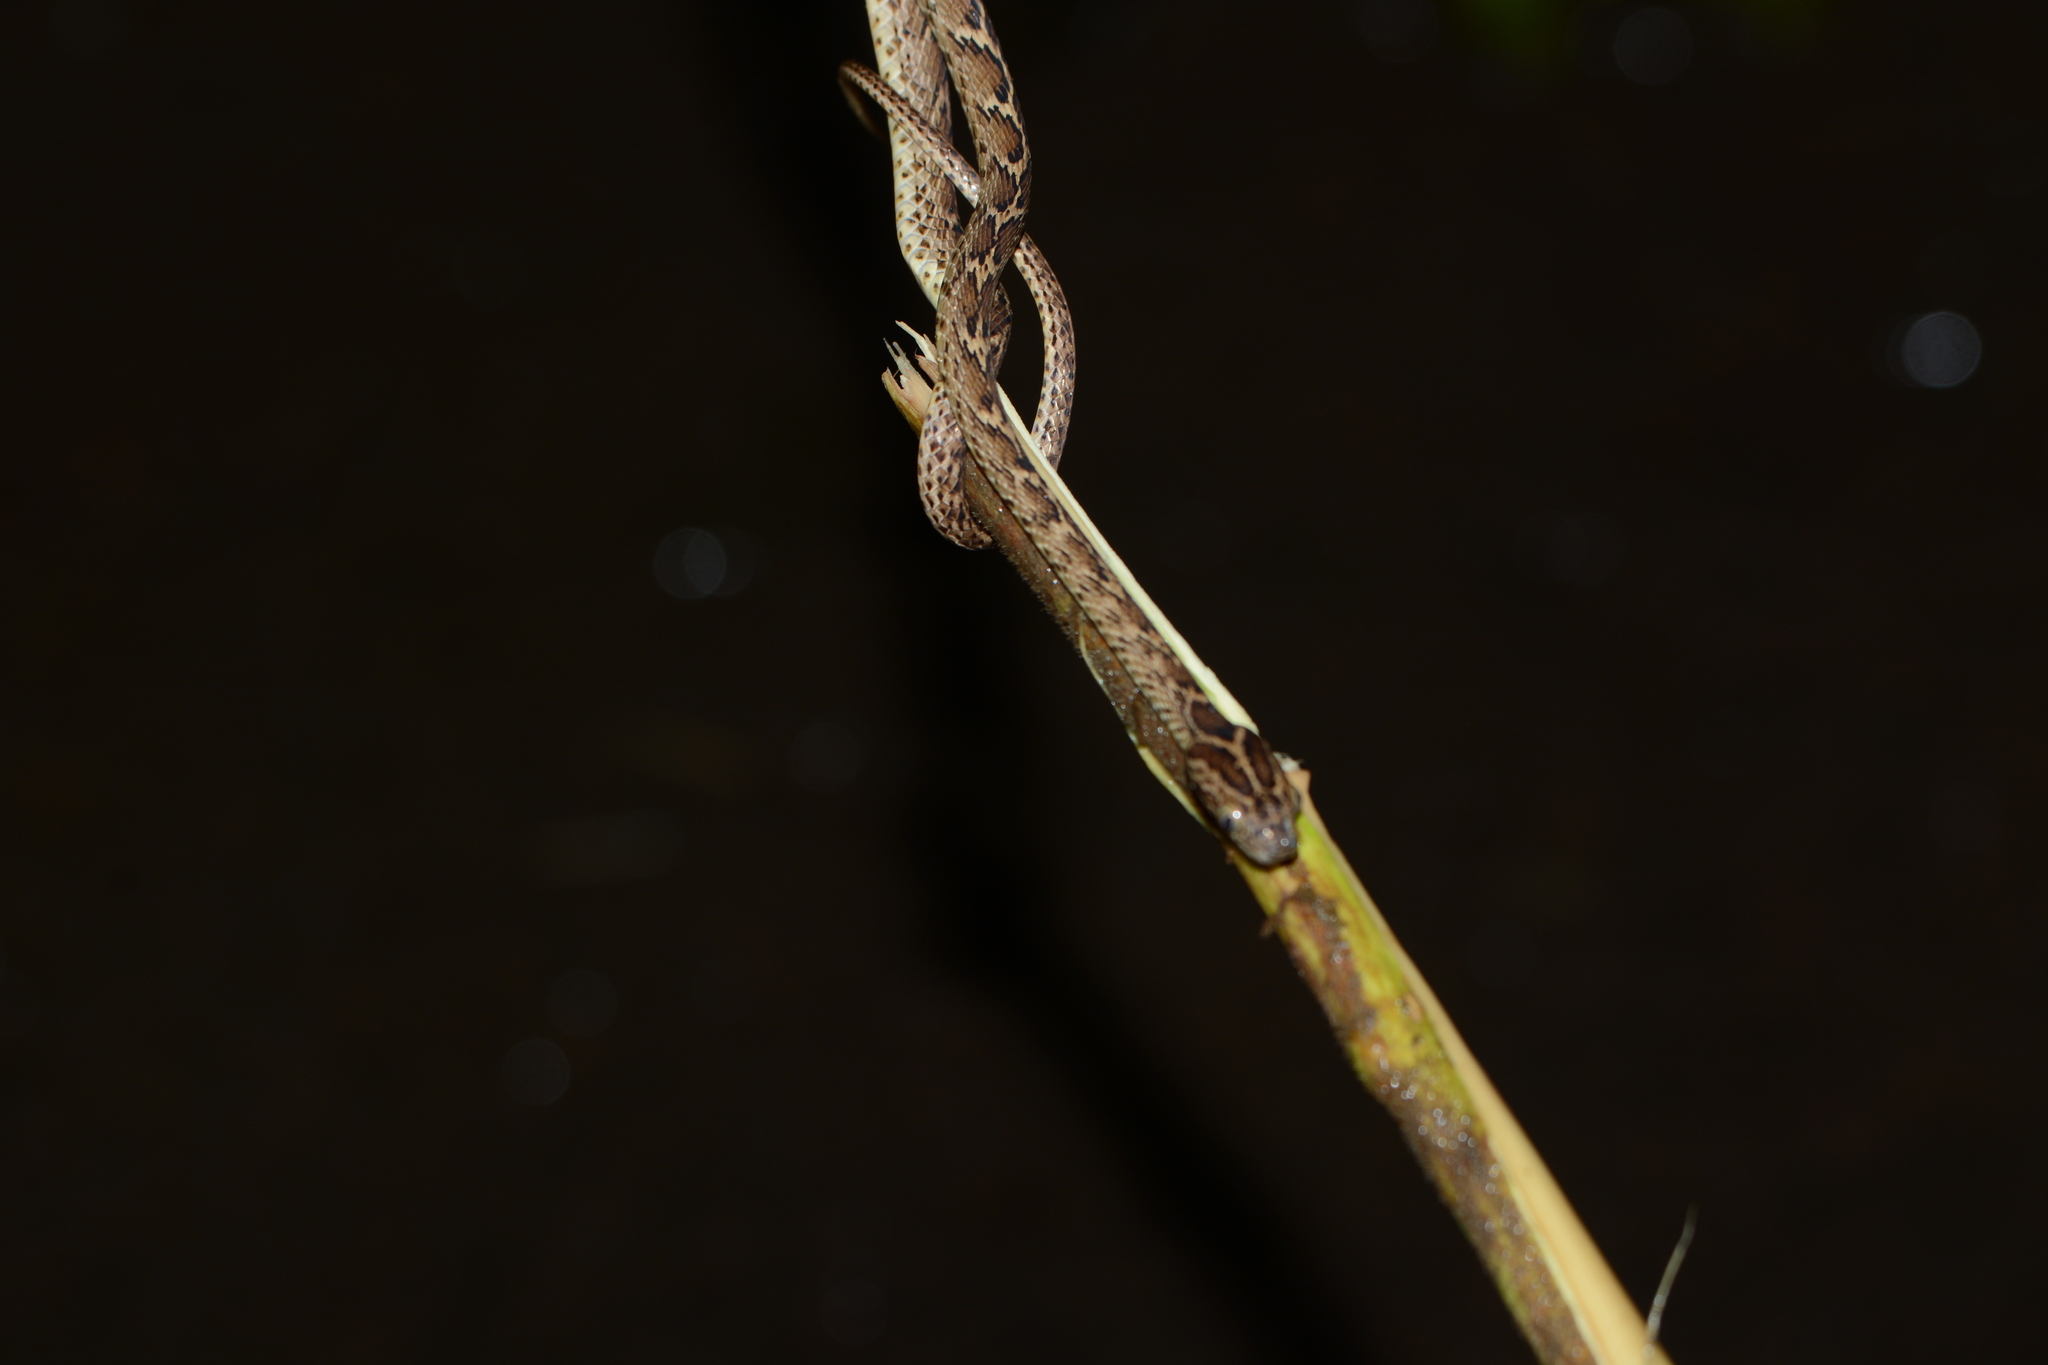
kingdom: Animalia
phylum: Chordata
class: Squamata
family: Colubridae
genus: Boiga
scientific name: Boiga trigonata
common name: Common cat snake
